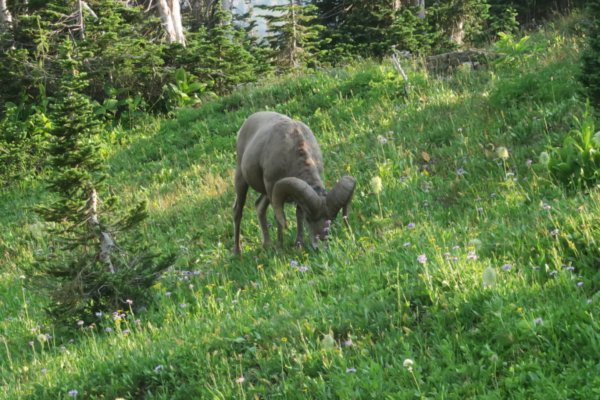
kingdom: Animalia
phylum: Chordata
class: Mammalia
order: Artiodactyla
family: Bovidae
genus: Ovis
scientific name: Ovis canadensis
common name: Bighorn sheep
